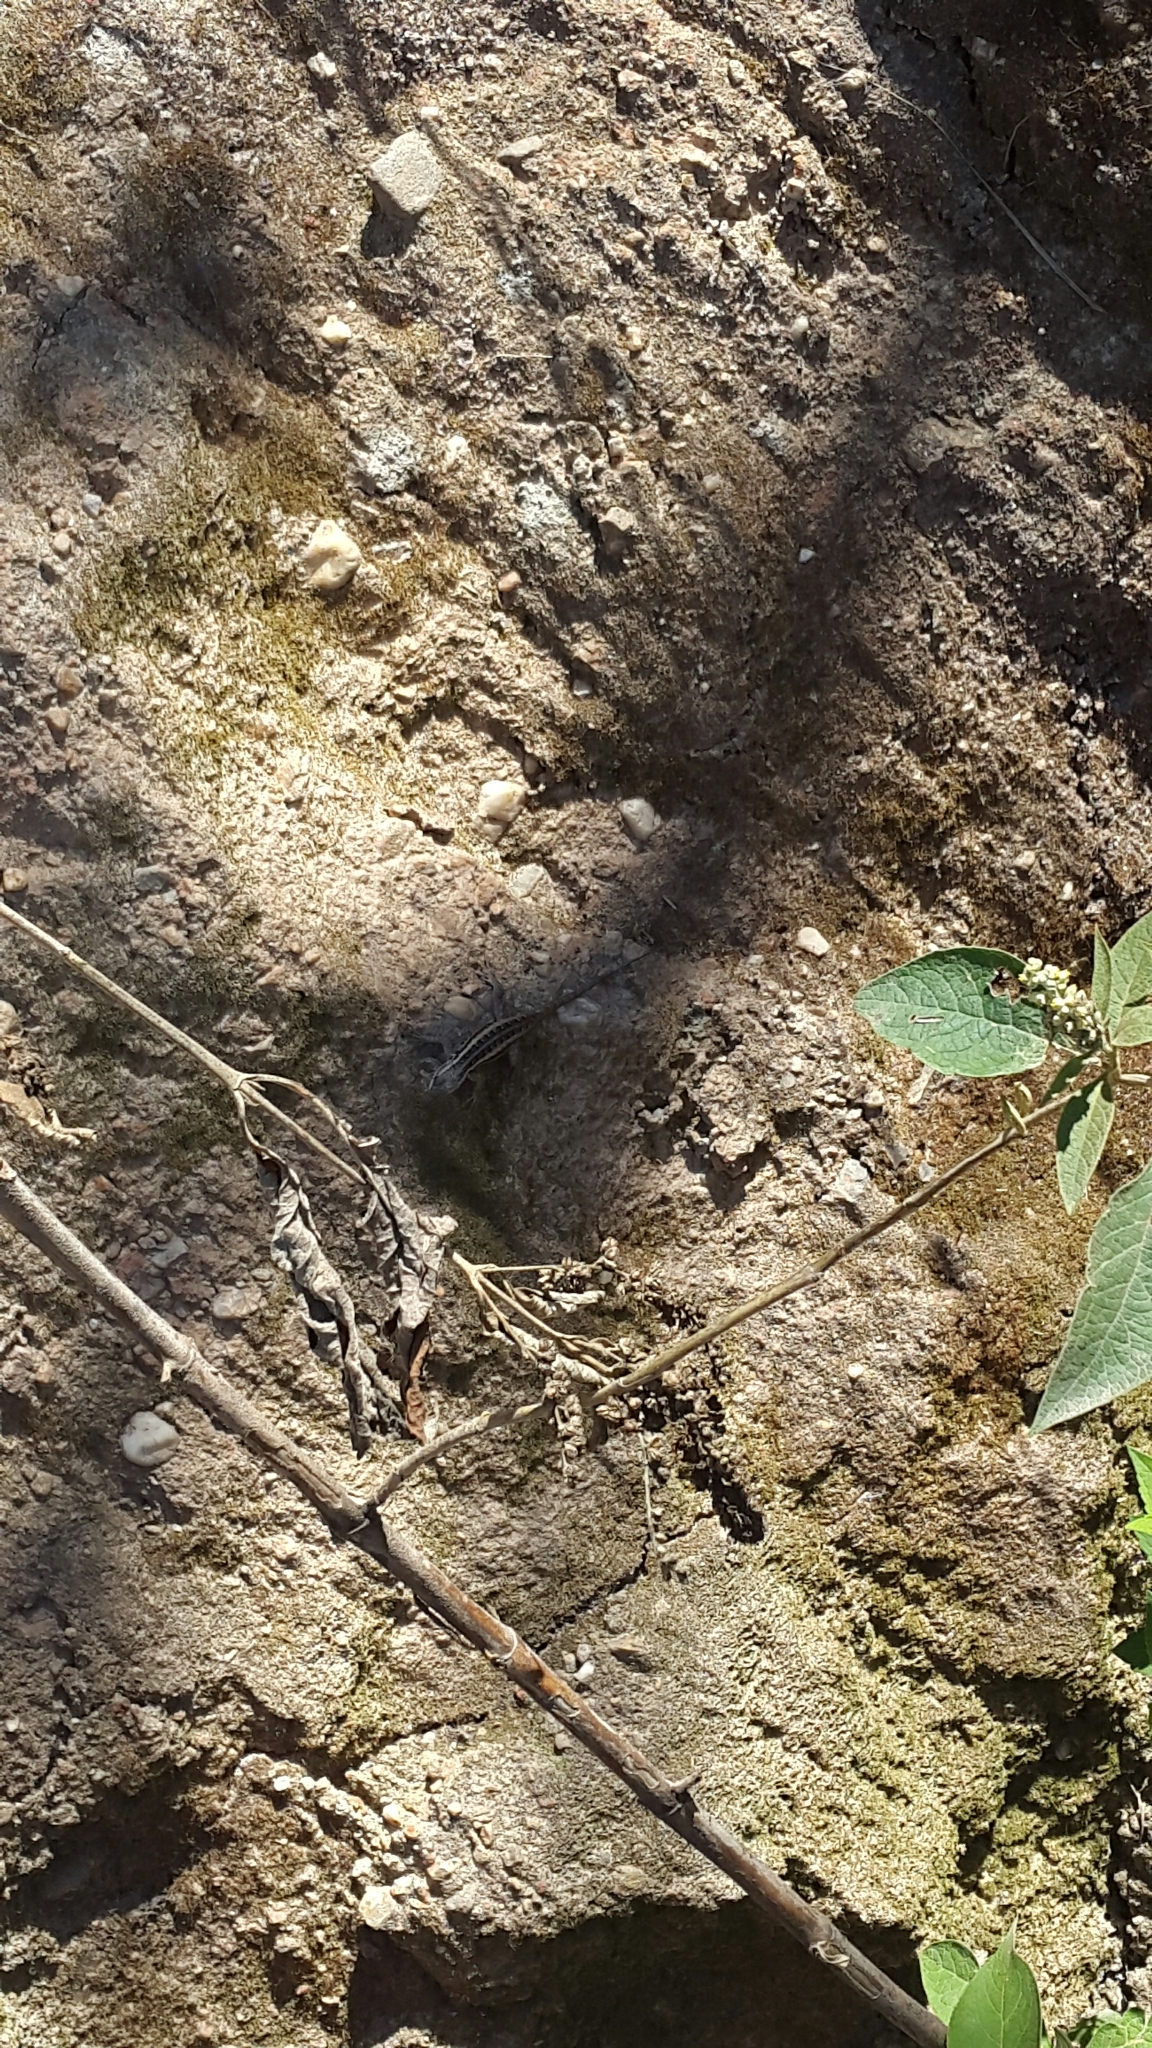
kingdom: Animalia
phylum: Chordata
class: Squamata
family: Phrynosomatidae
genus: Sceloporus
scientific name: Sceloporus variabilis
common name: Rosebelly lizard
